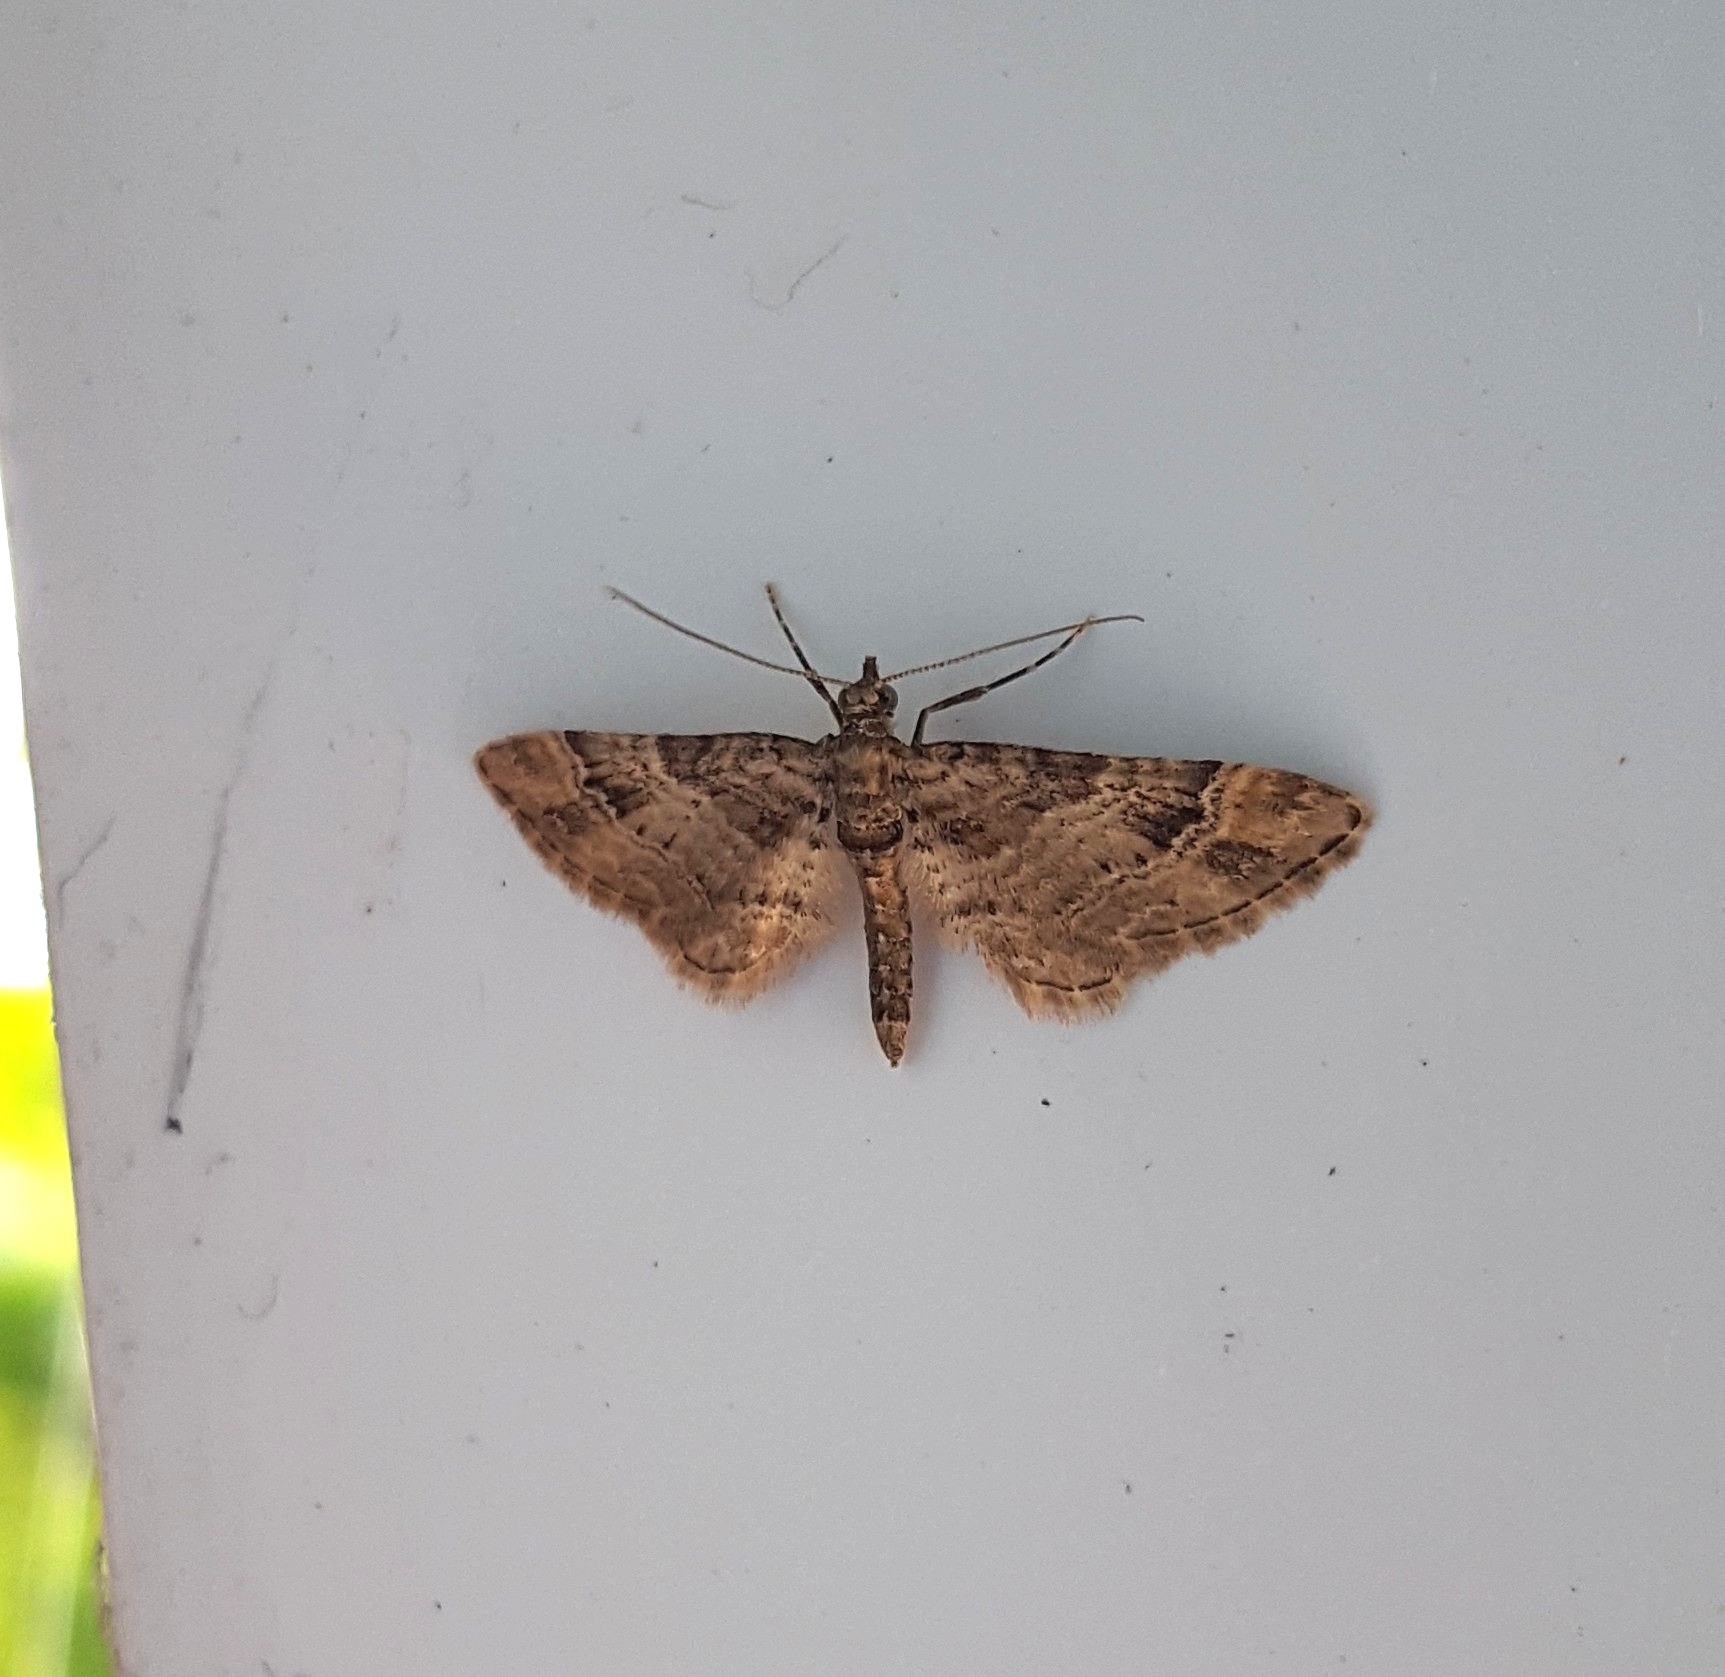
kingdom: Animalia
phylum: Arthropoda
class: Insecta
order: Lepidoptera
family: Geometridae
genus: Gymnoscelis
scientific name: Gymnoscelis rufifasciata
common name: Double-striped pug
